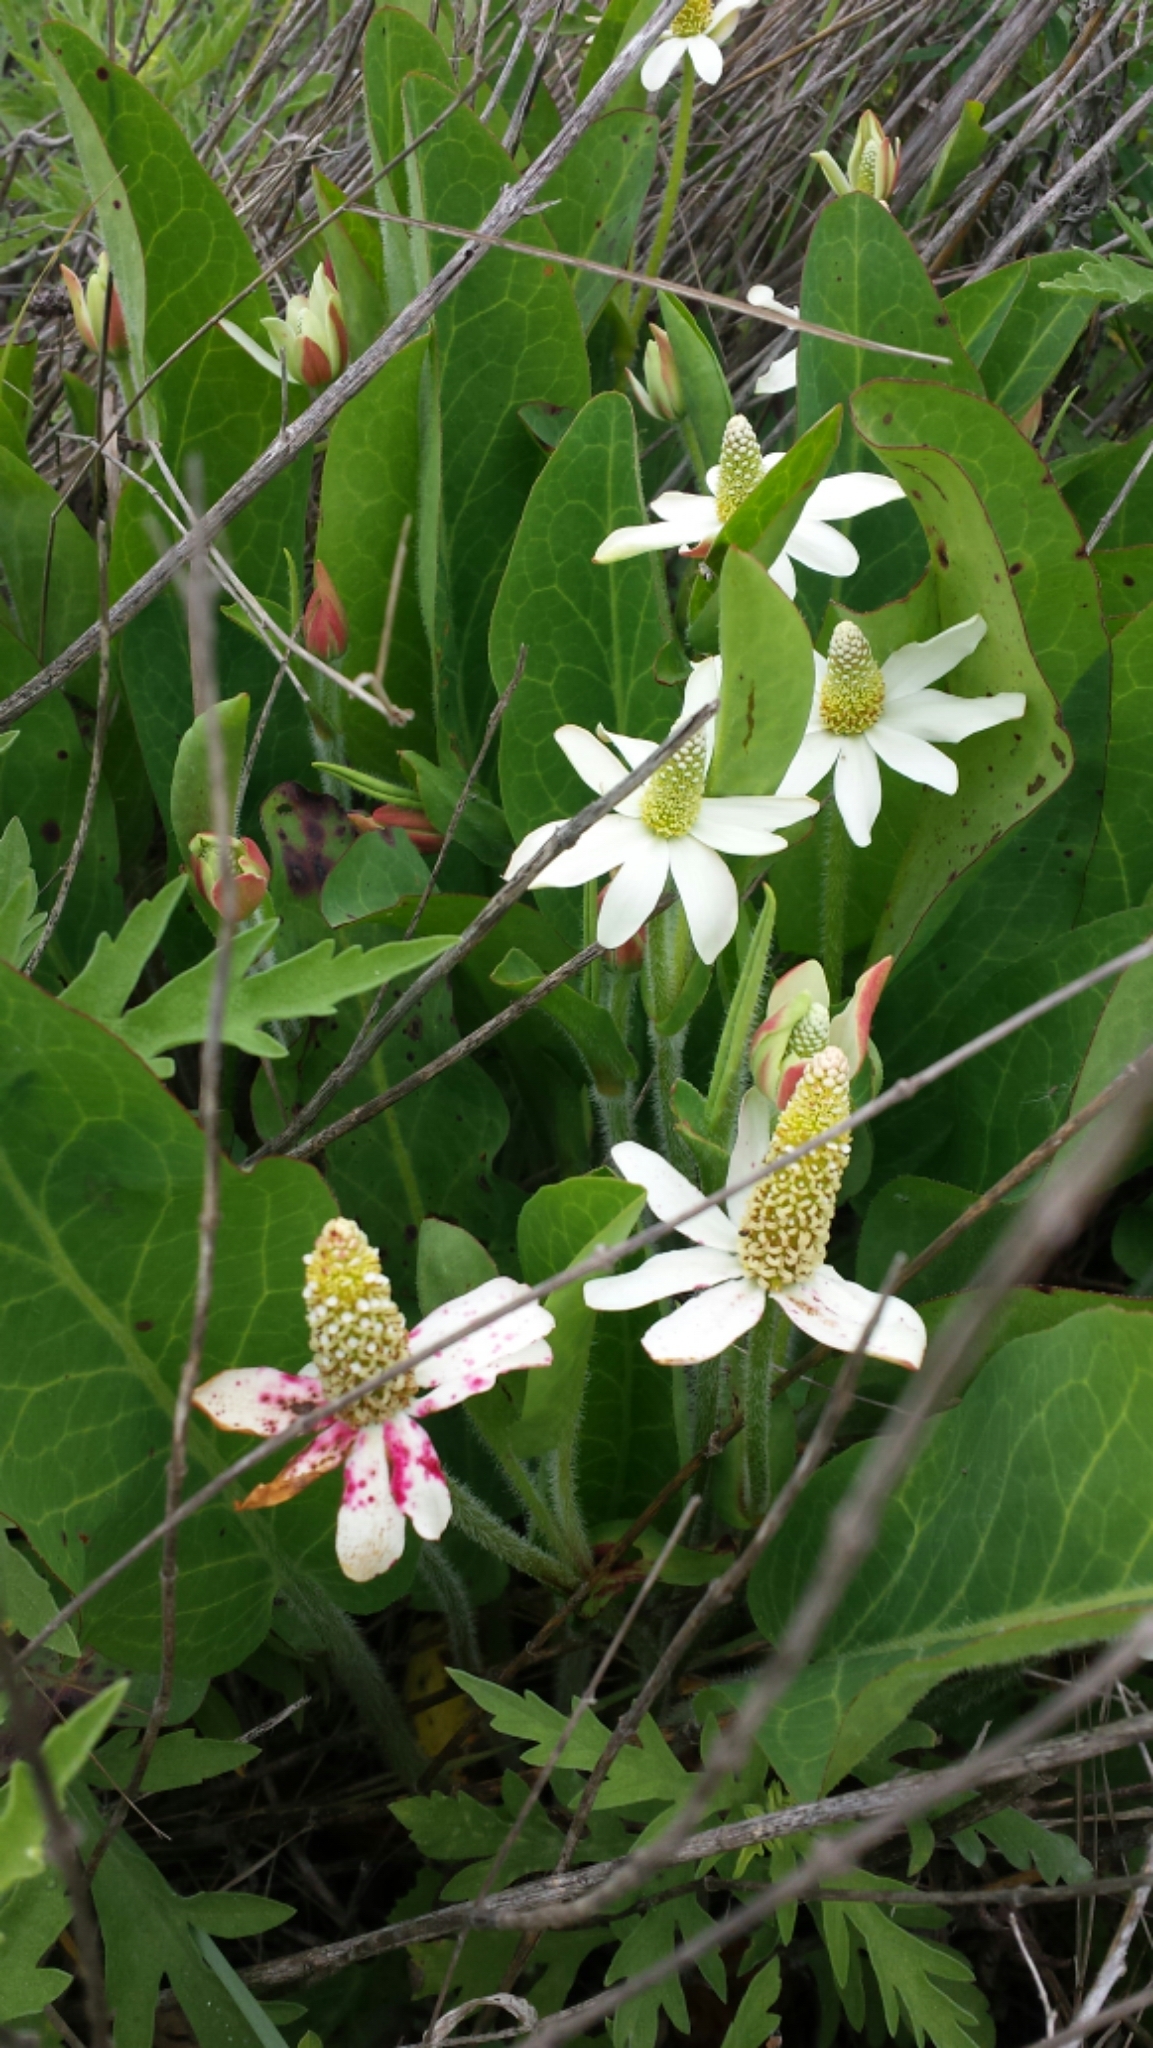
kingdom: Plantae
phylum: Tracheophyta
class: Magnoliopsida
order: Piperales
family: Saururaceae
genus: Anemopsis
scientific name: Anemopsis californica
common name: Apache-beads
